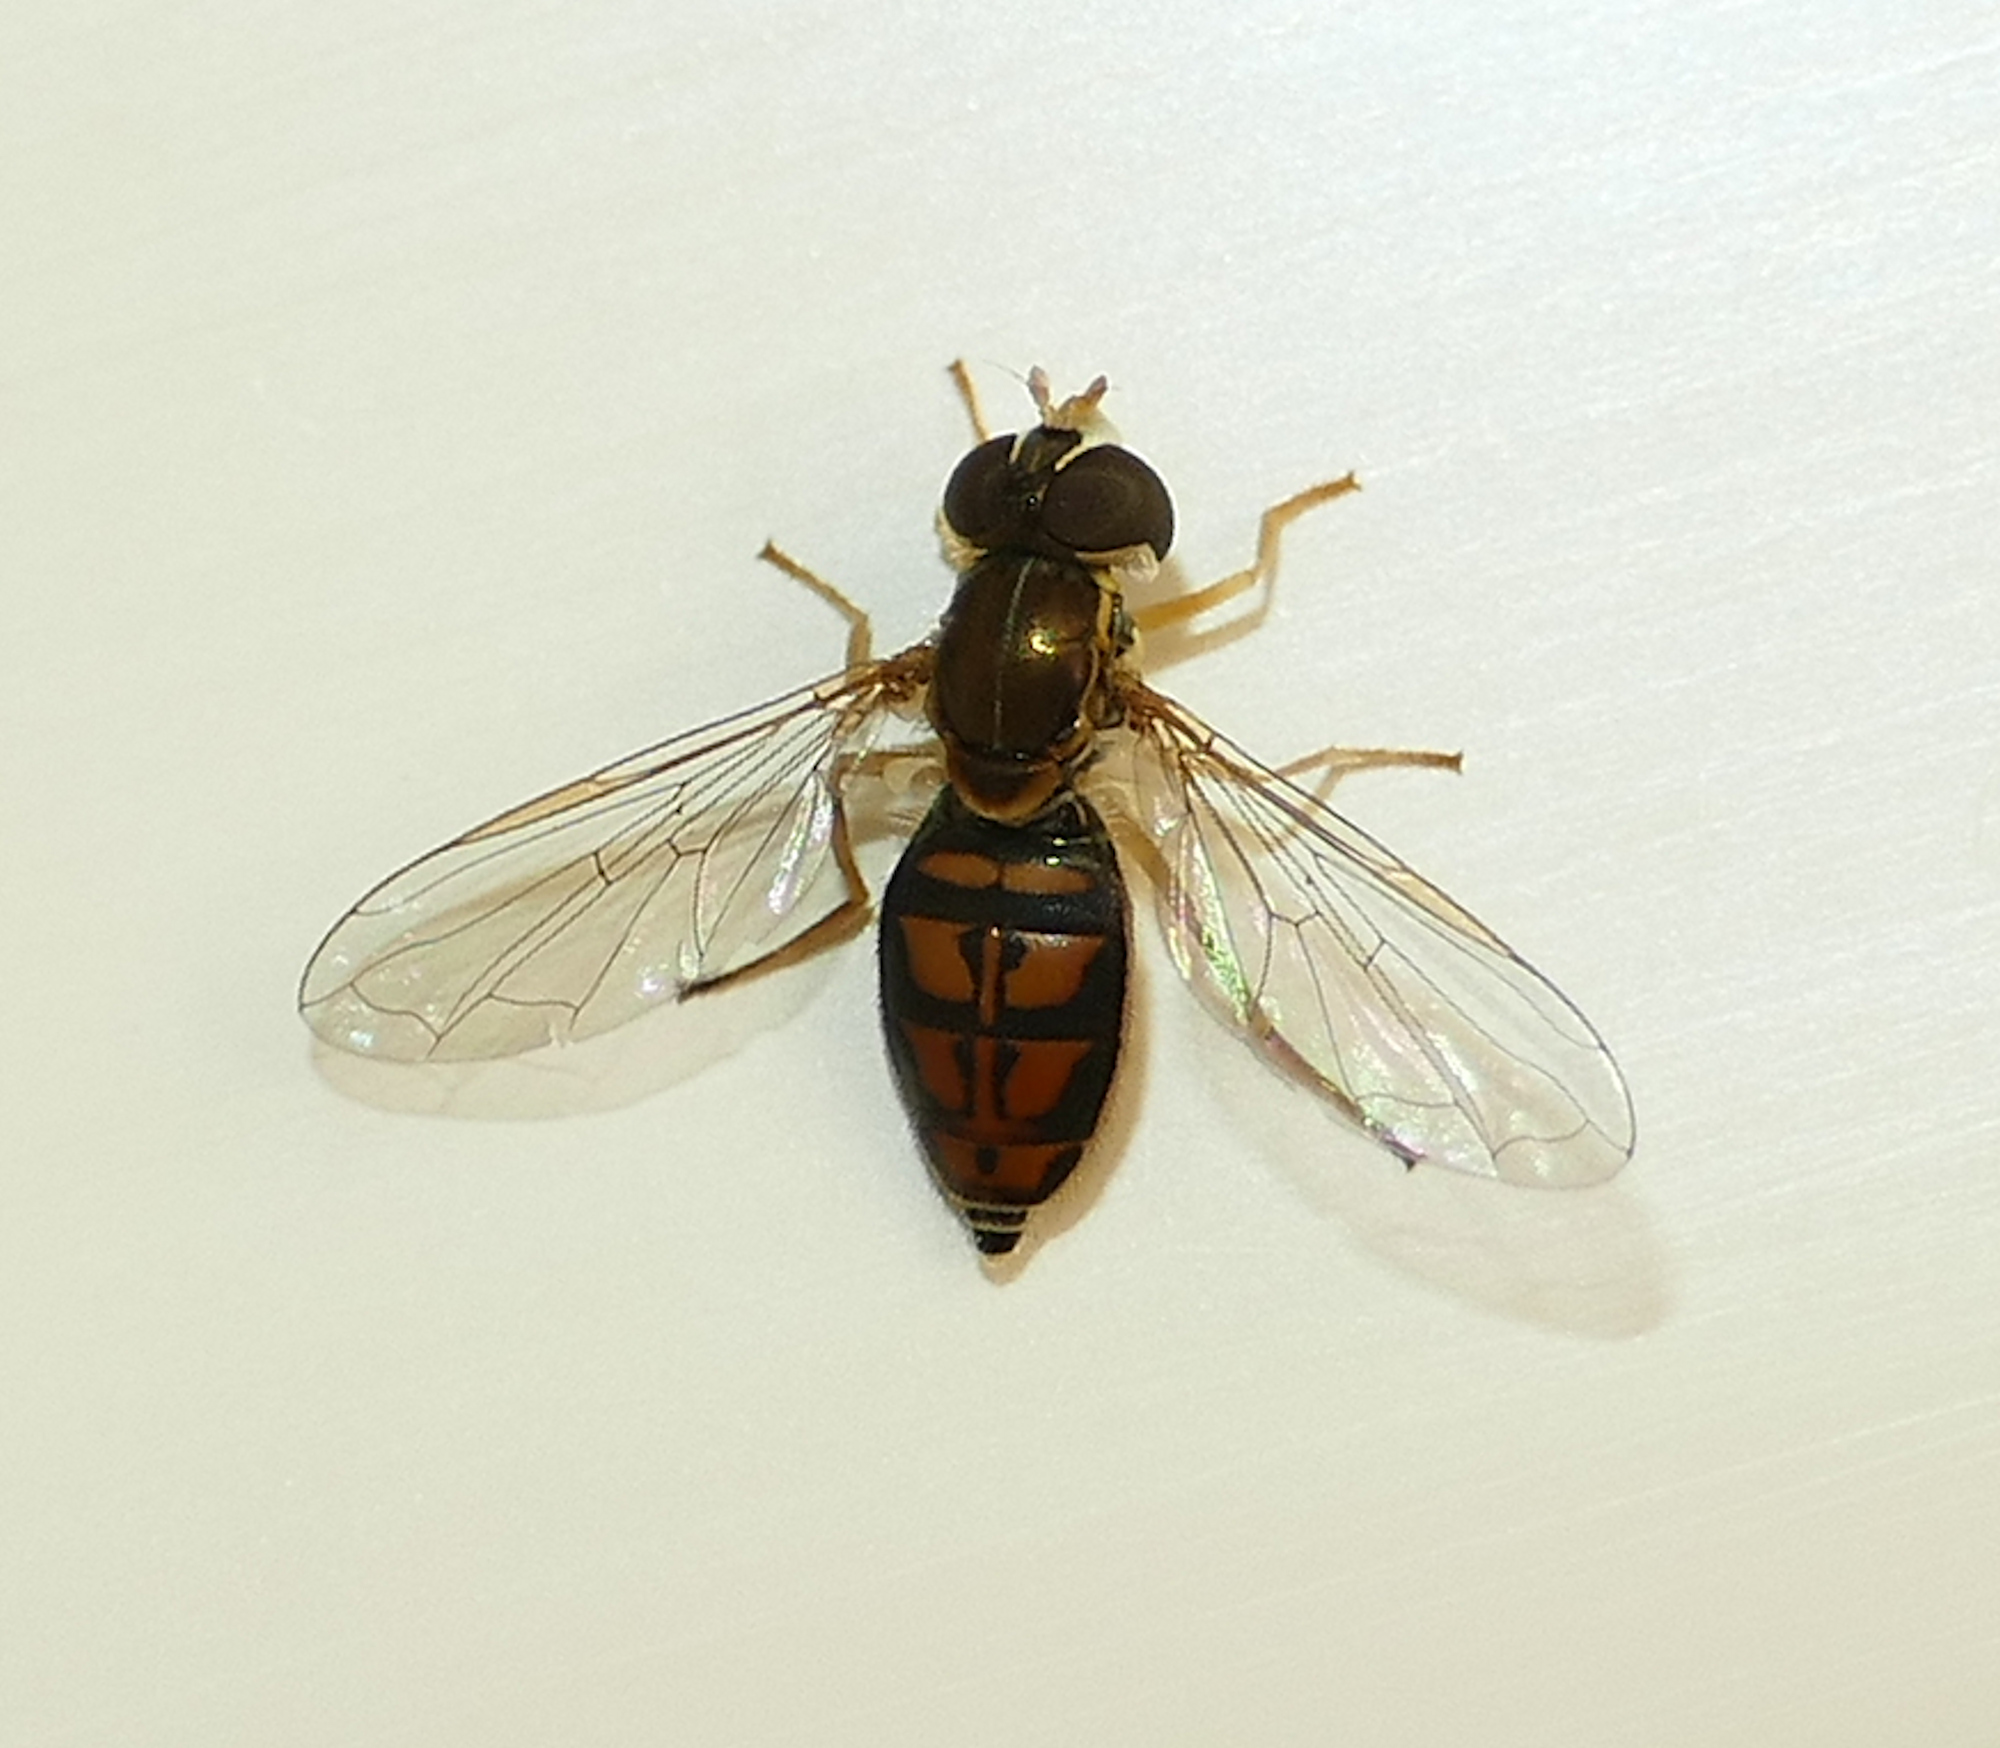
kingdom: Animalia
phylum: Arthropoda
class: Insecta
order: Diptera
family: Syrphidae
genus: Toxomerus
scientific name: Toxomerus marginatus
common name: Syrphid fly
